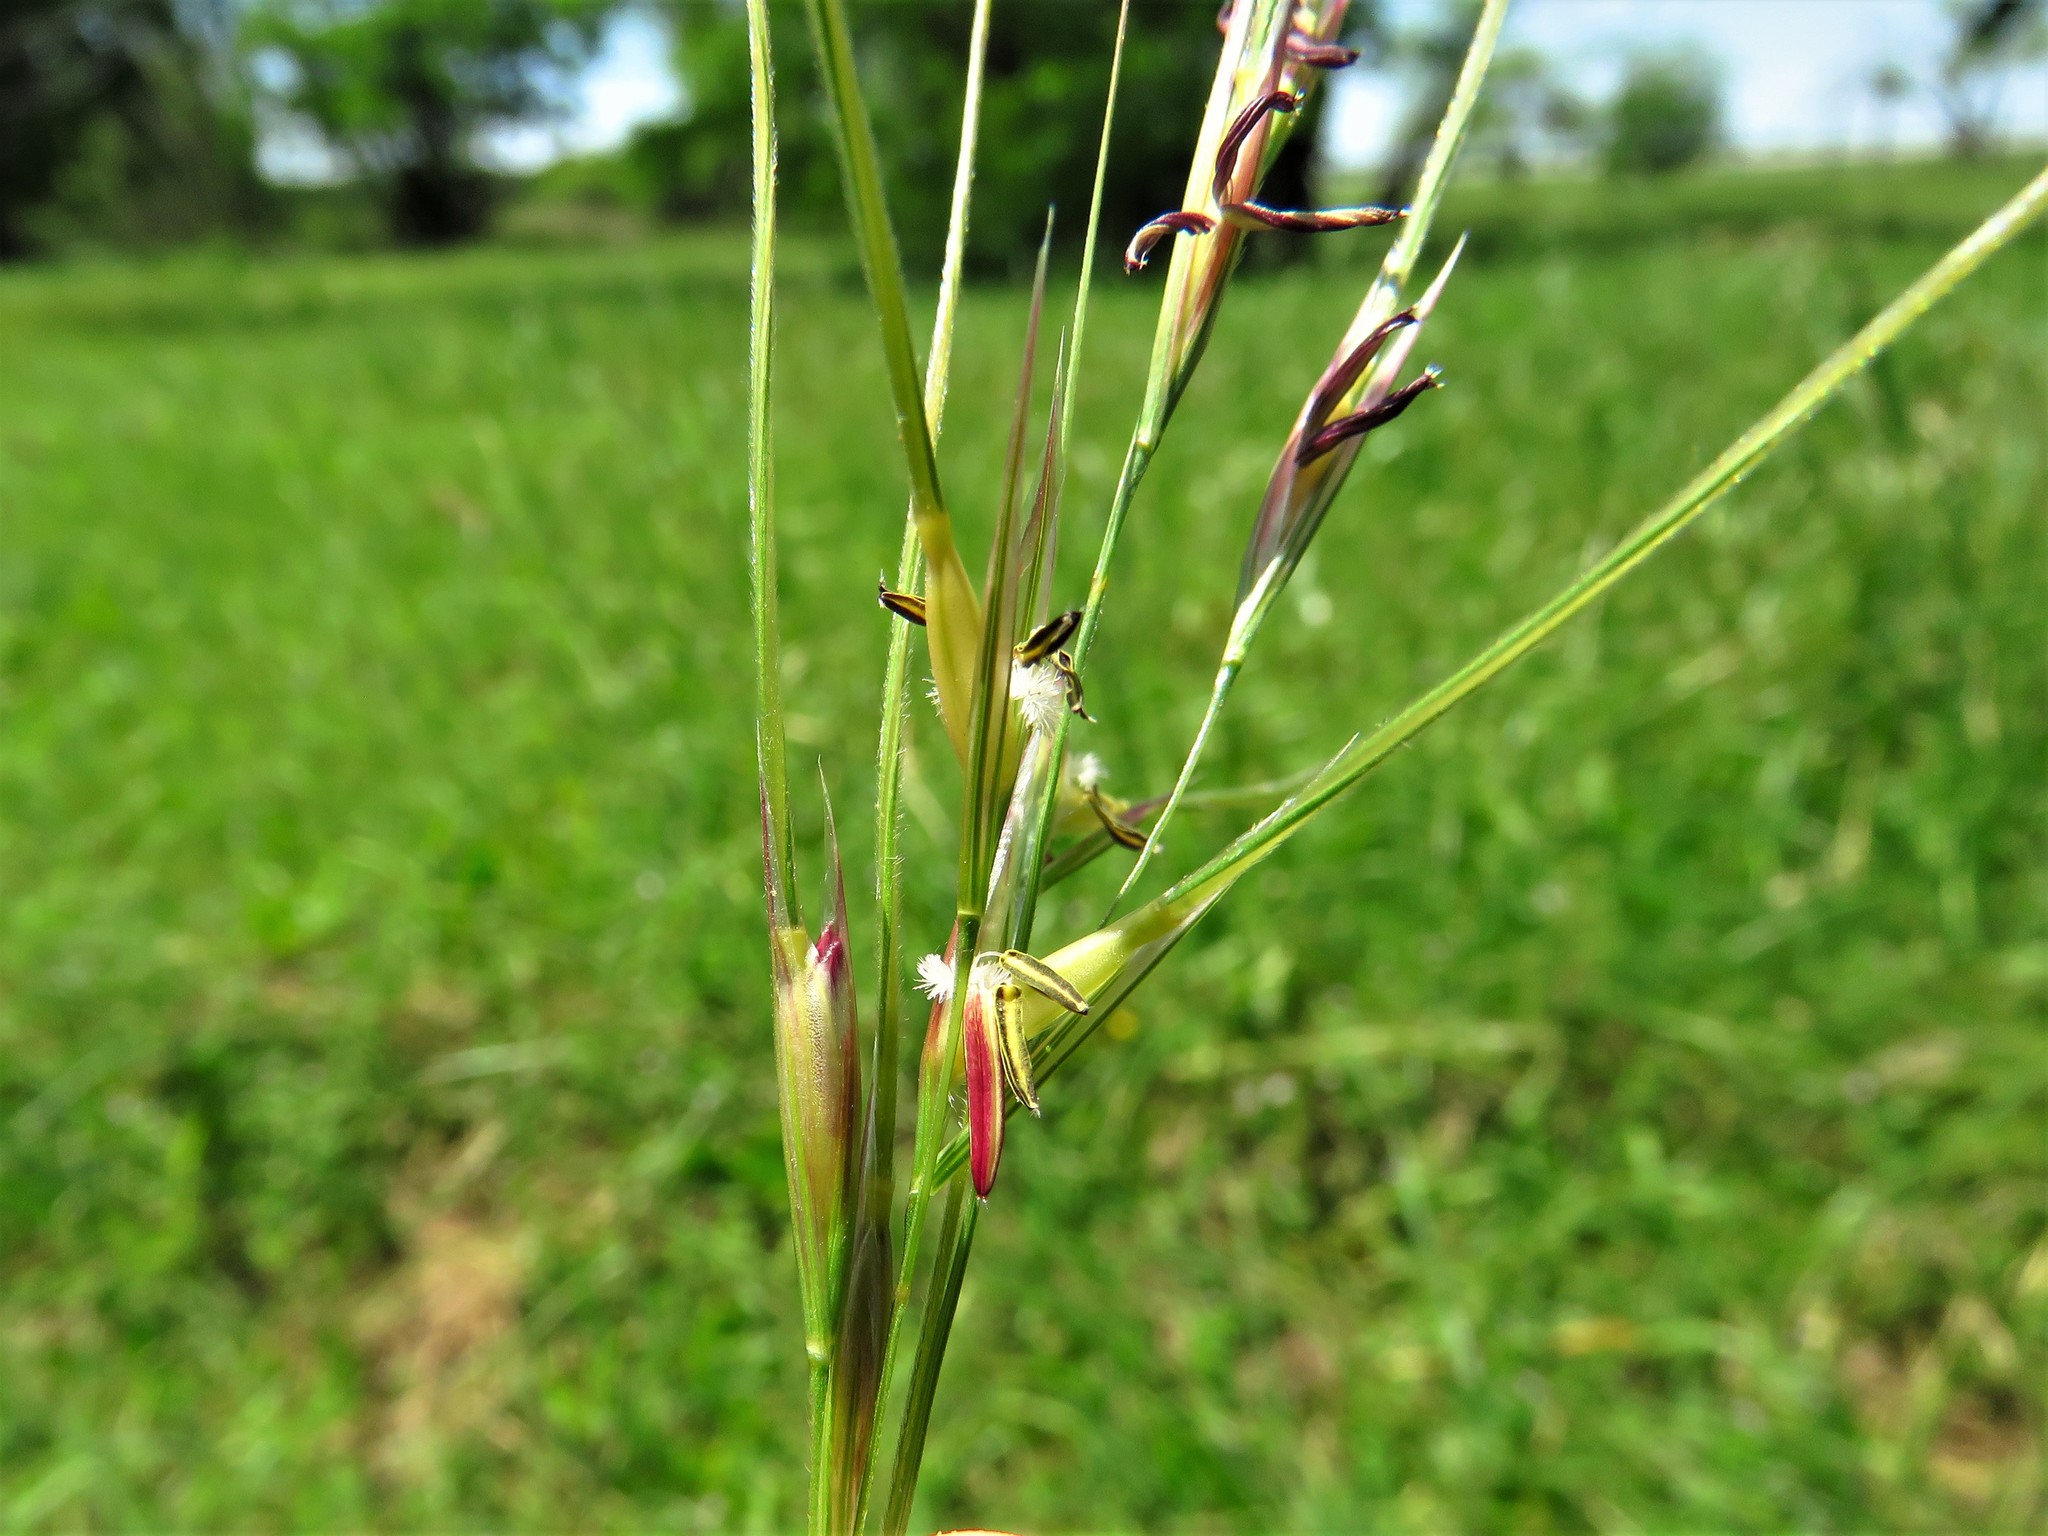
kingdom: Plantae
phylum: Tracheophyta
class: Liliopsida
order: Poales
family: Poaceae
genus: Nassella
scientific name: Nassella leucotricha
